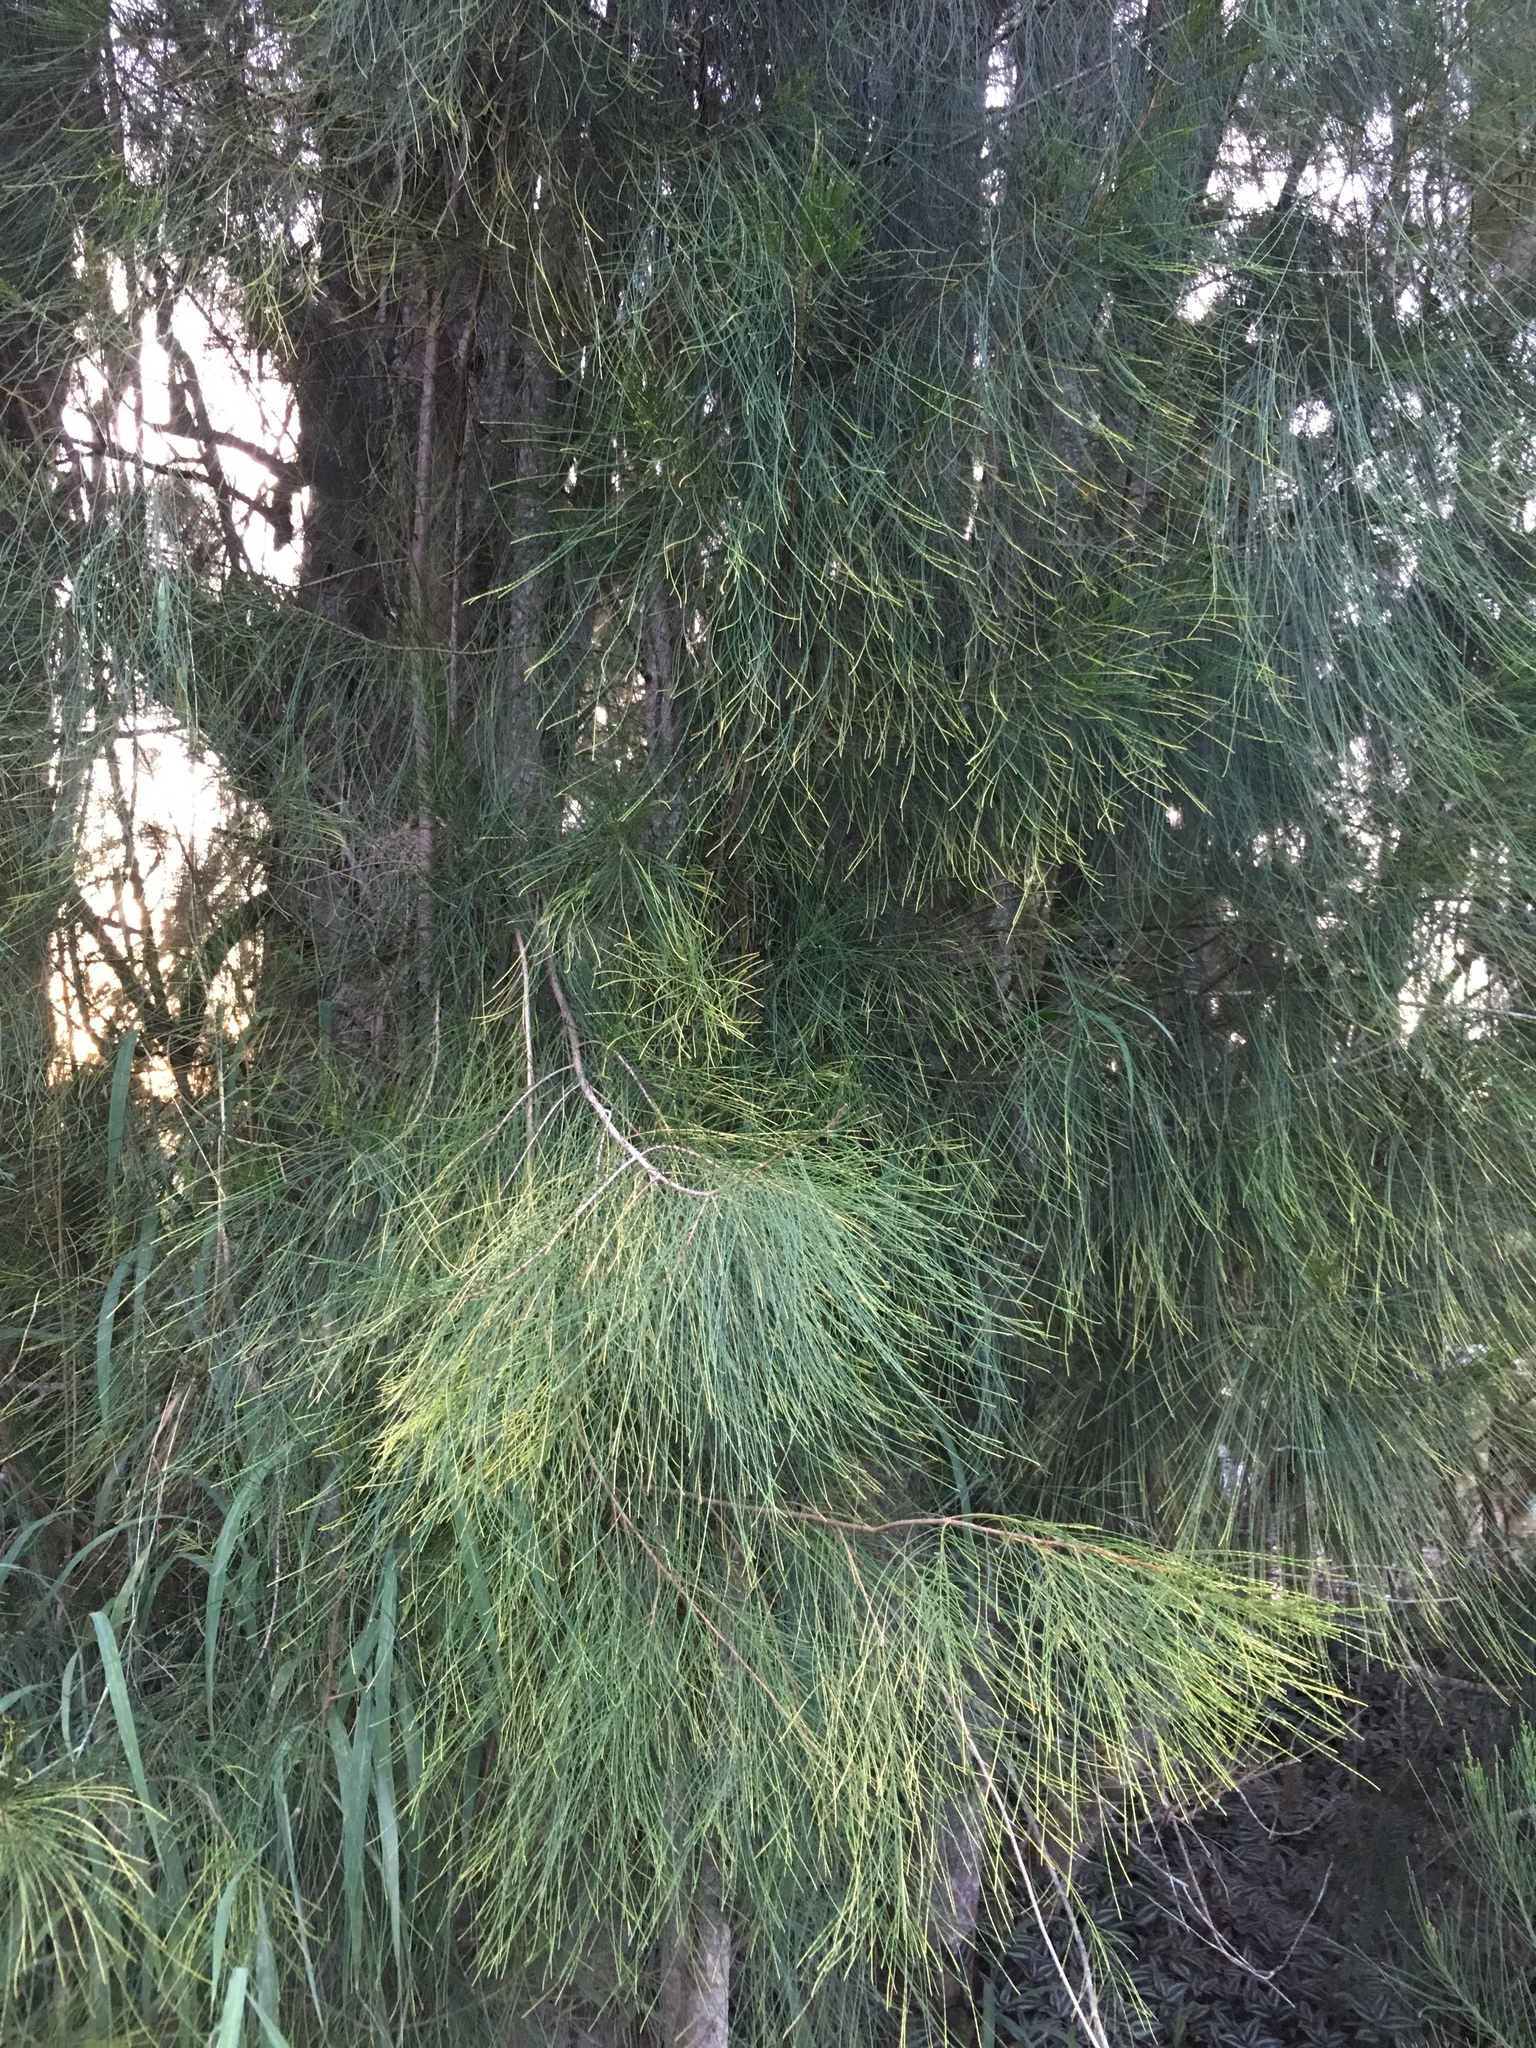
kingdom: Plantae
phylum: Tracheophyta
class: Magnoliopsida
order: Fagales
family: Casuarinaceae
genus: Casuarina
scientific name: Casuarina equisetifolia
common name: Beach sheoak
